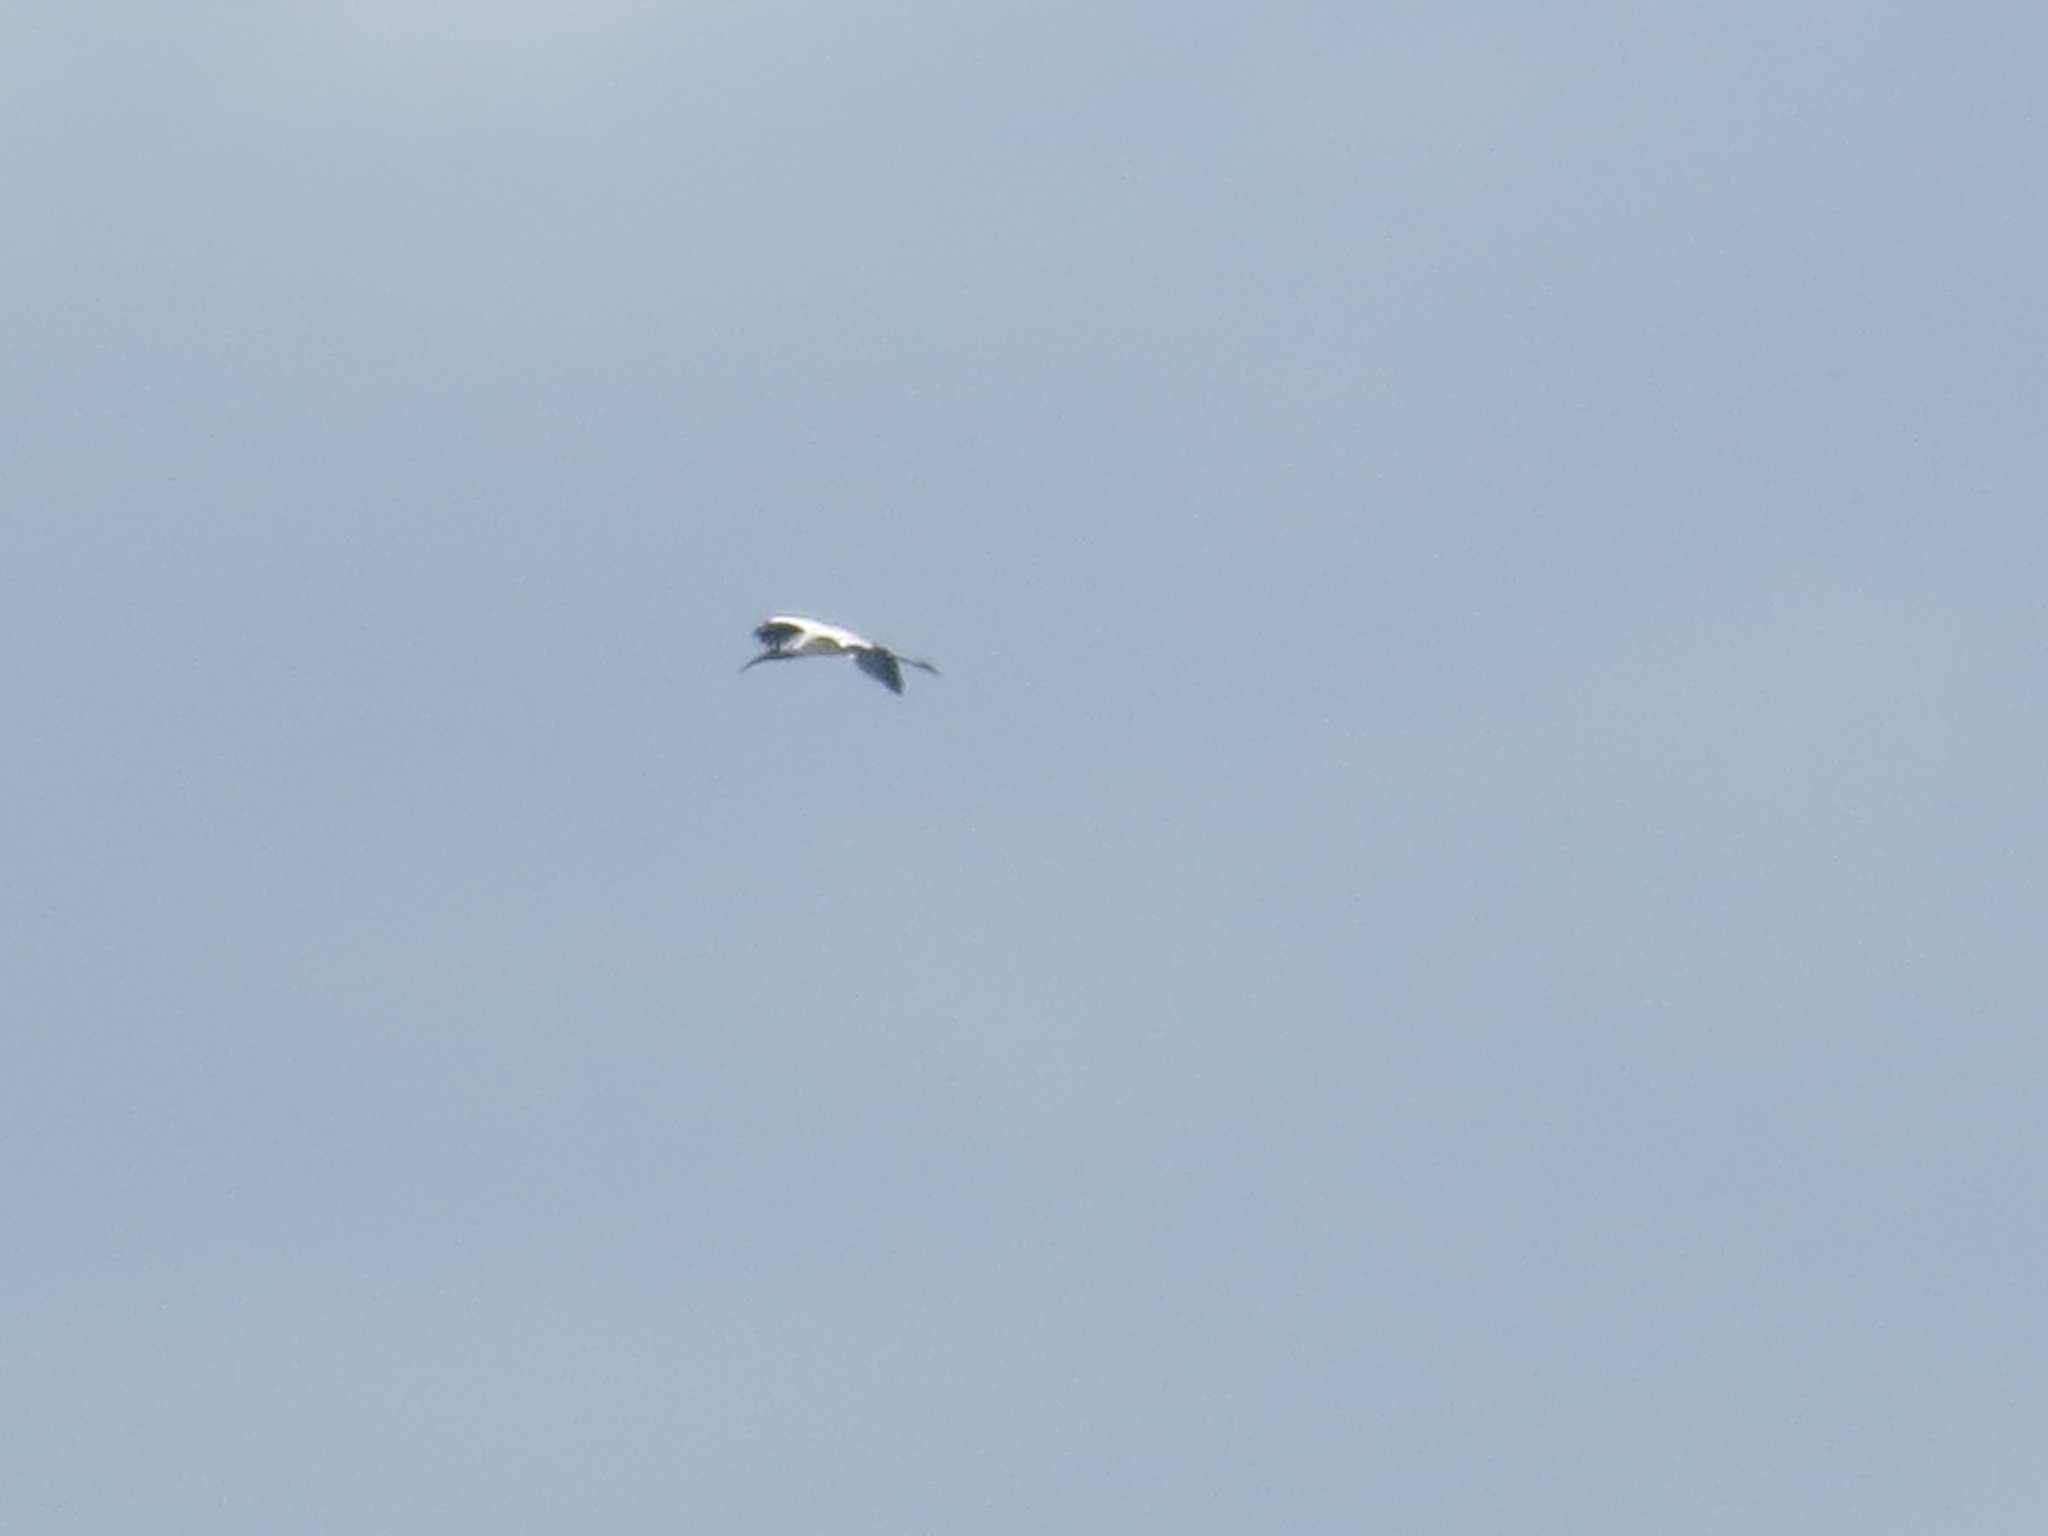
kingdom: Animalia
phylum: Chordata
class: Aves
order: Ciconiiformes
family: Ciconiidae
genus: Mycteria
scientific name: Mycteria americana
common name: Wood stork
